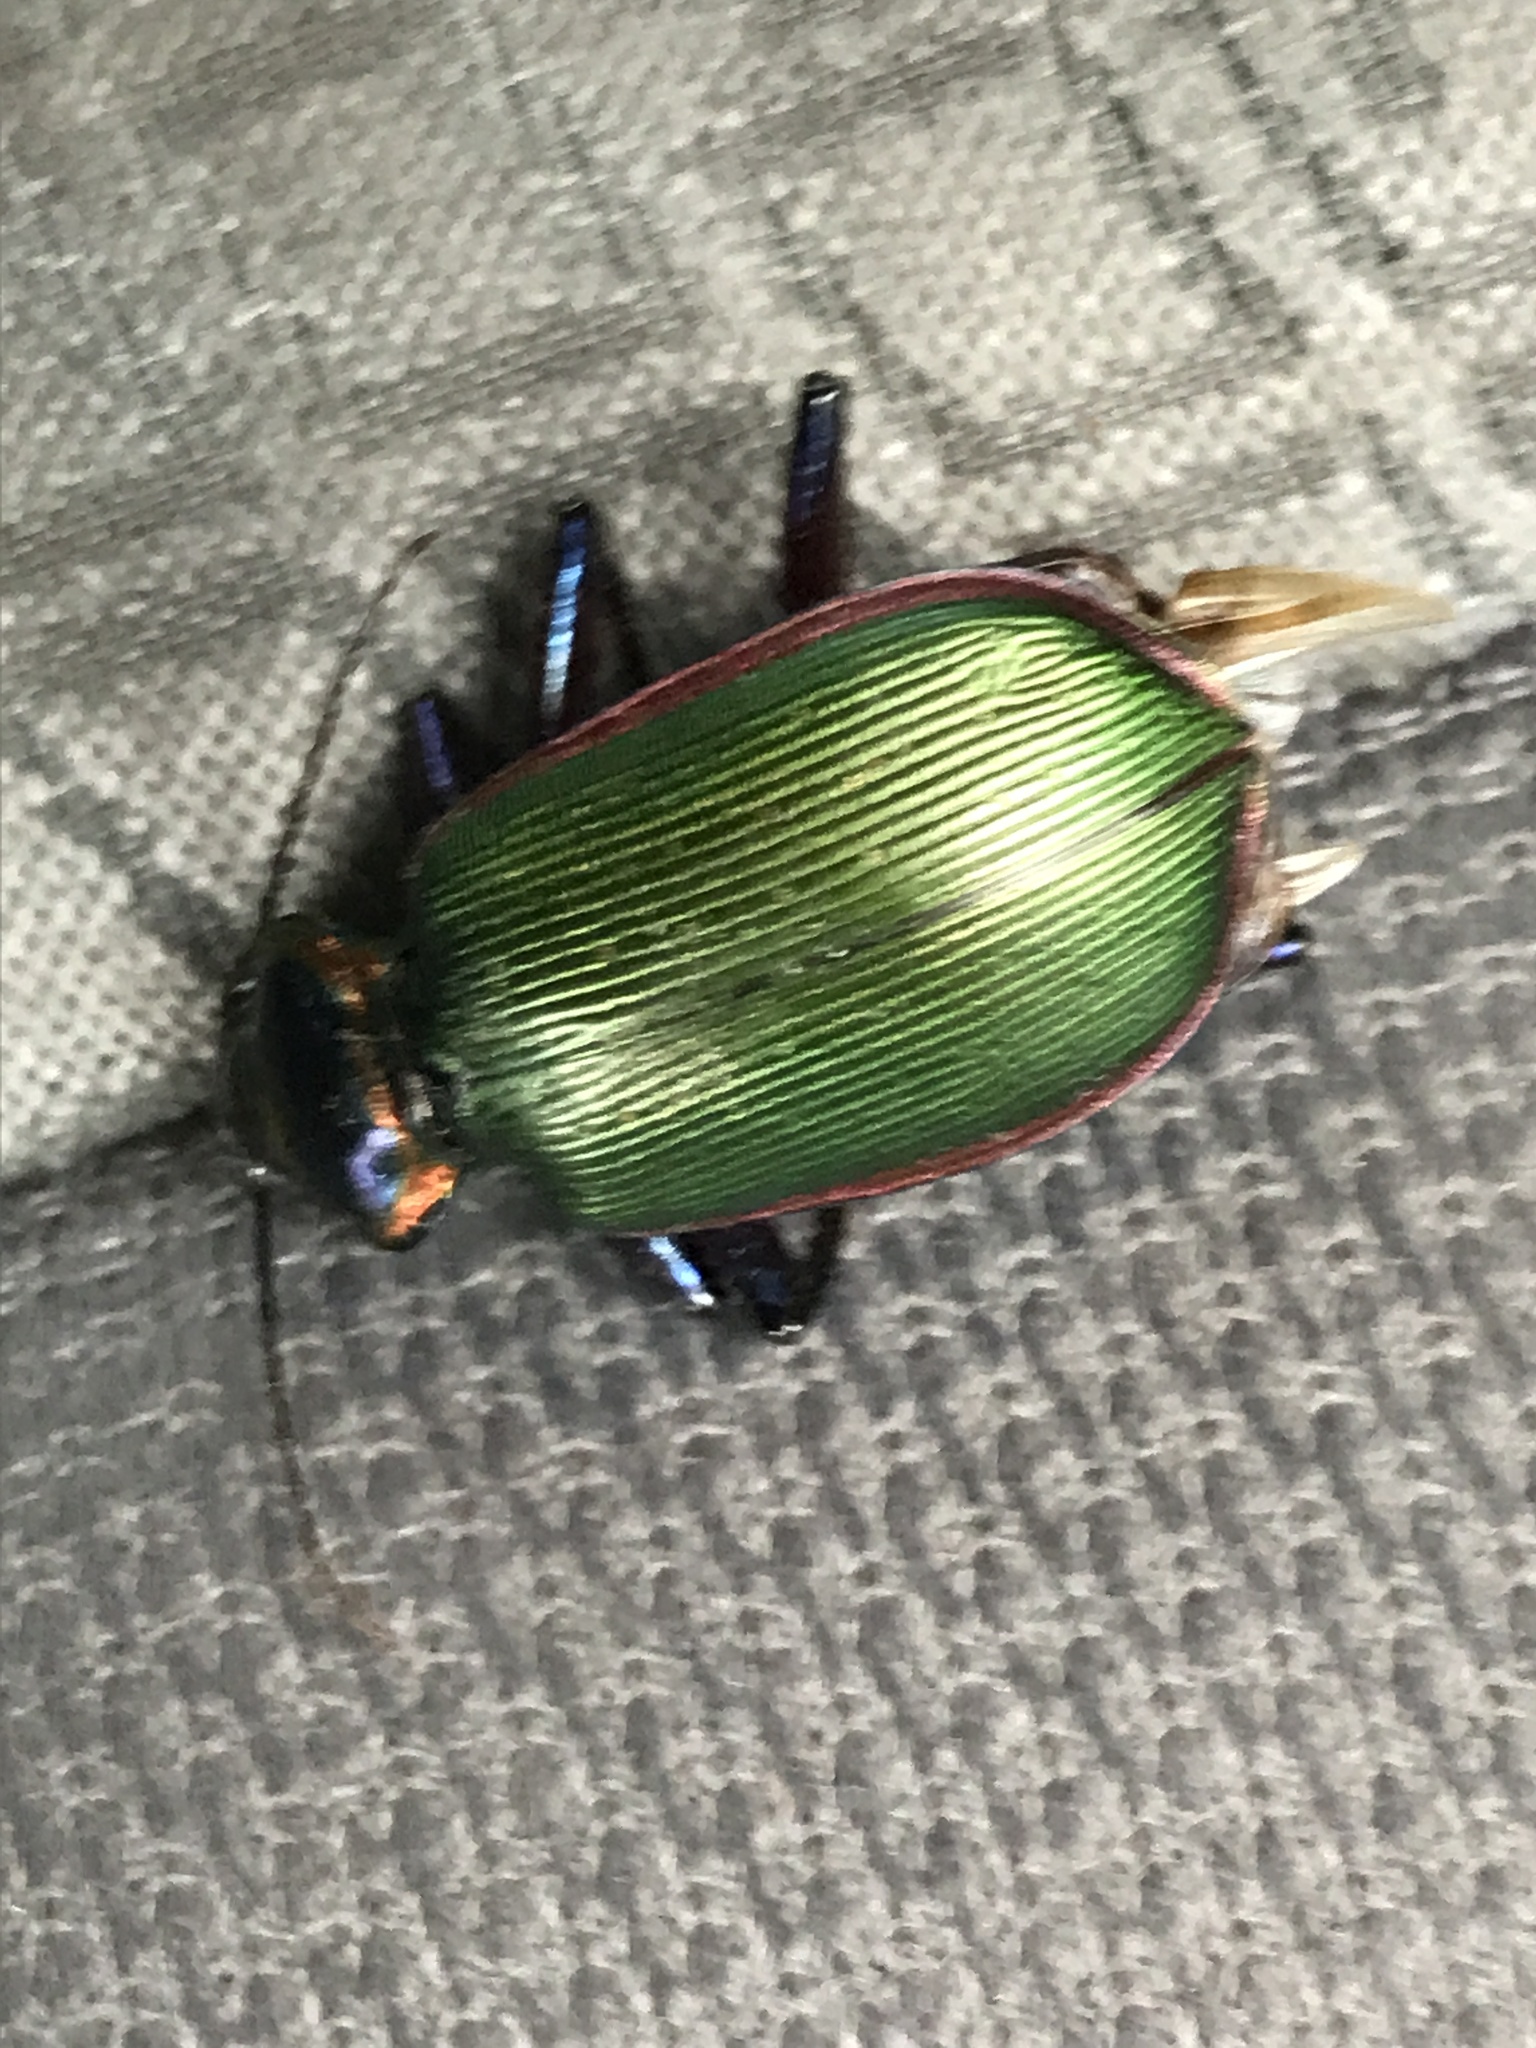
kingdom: Animalia
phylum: Arthropoda
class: Insecta
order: Coleoptera
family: Carabidae
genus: Calosoma
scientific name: Calosoma scrutator
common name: Fiery searcher beetle
